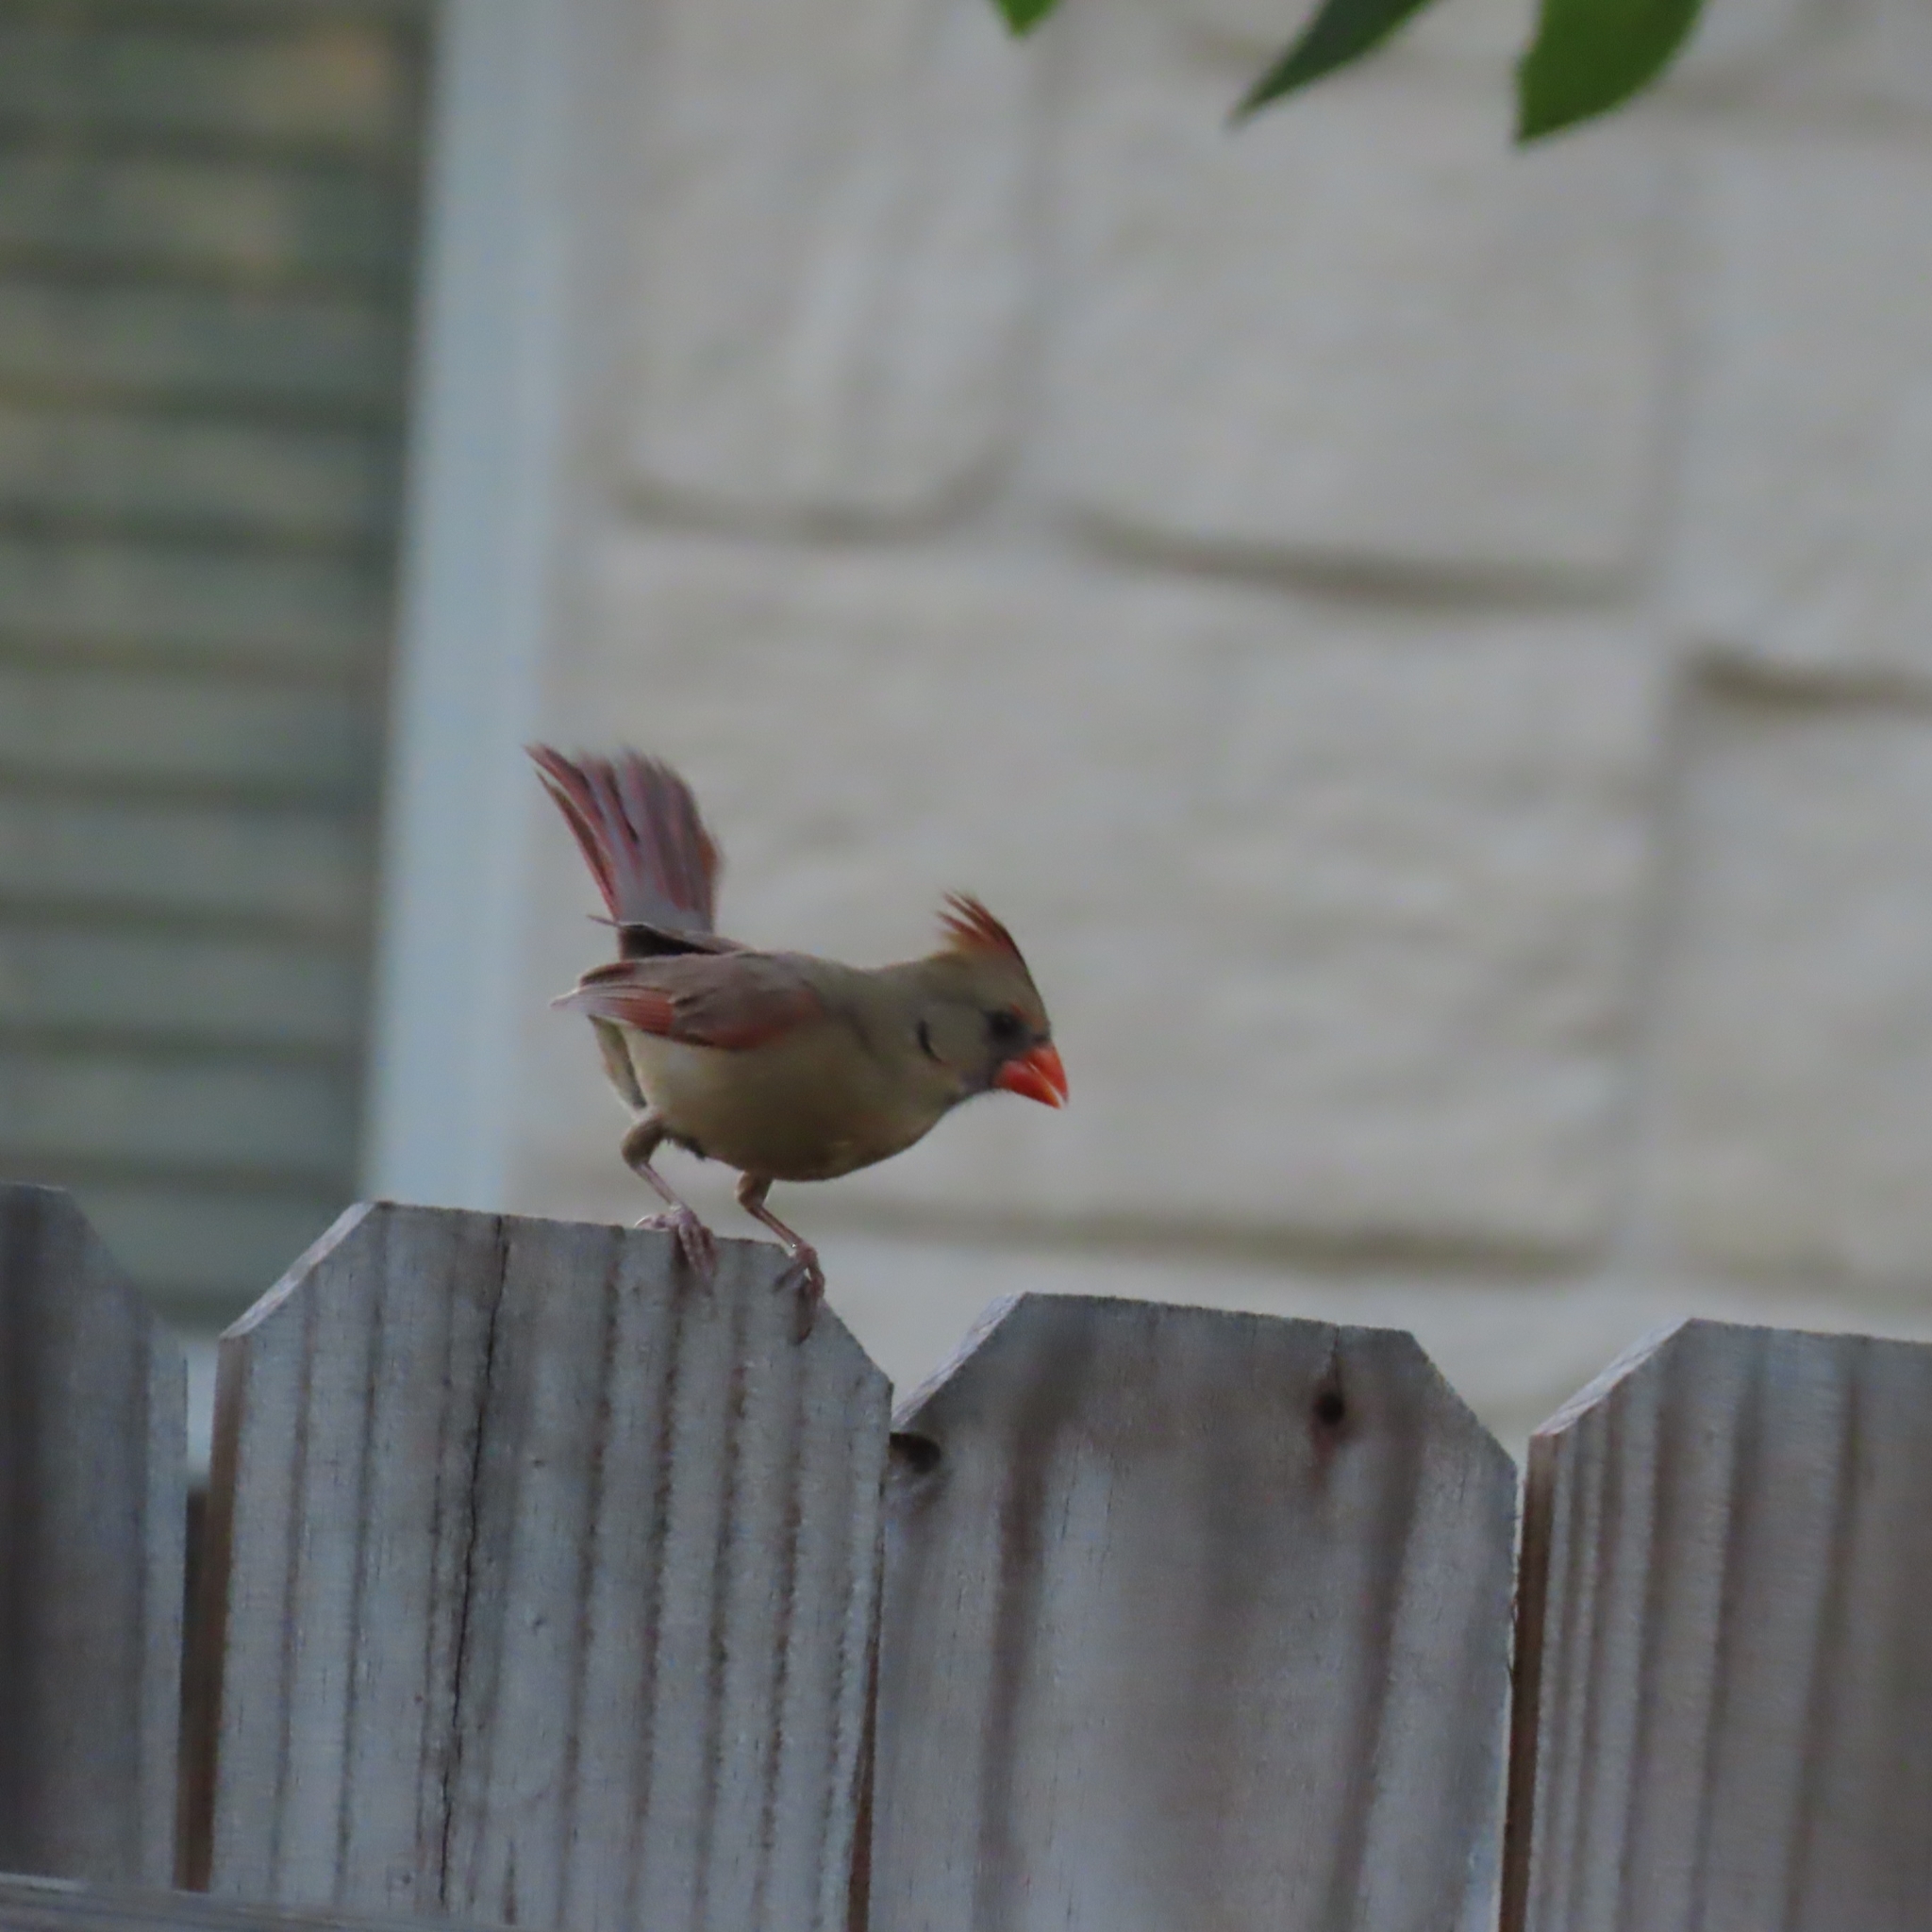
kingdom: Animalia
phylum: Chordata
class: Aves
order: Passeriformes
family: Cardinalidae
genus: Cardinalis
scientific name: Cardinalis cardinalis
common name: Northern cardinal
